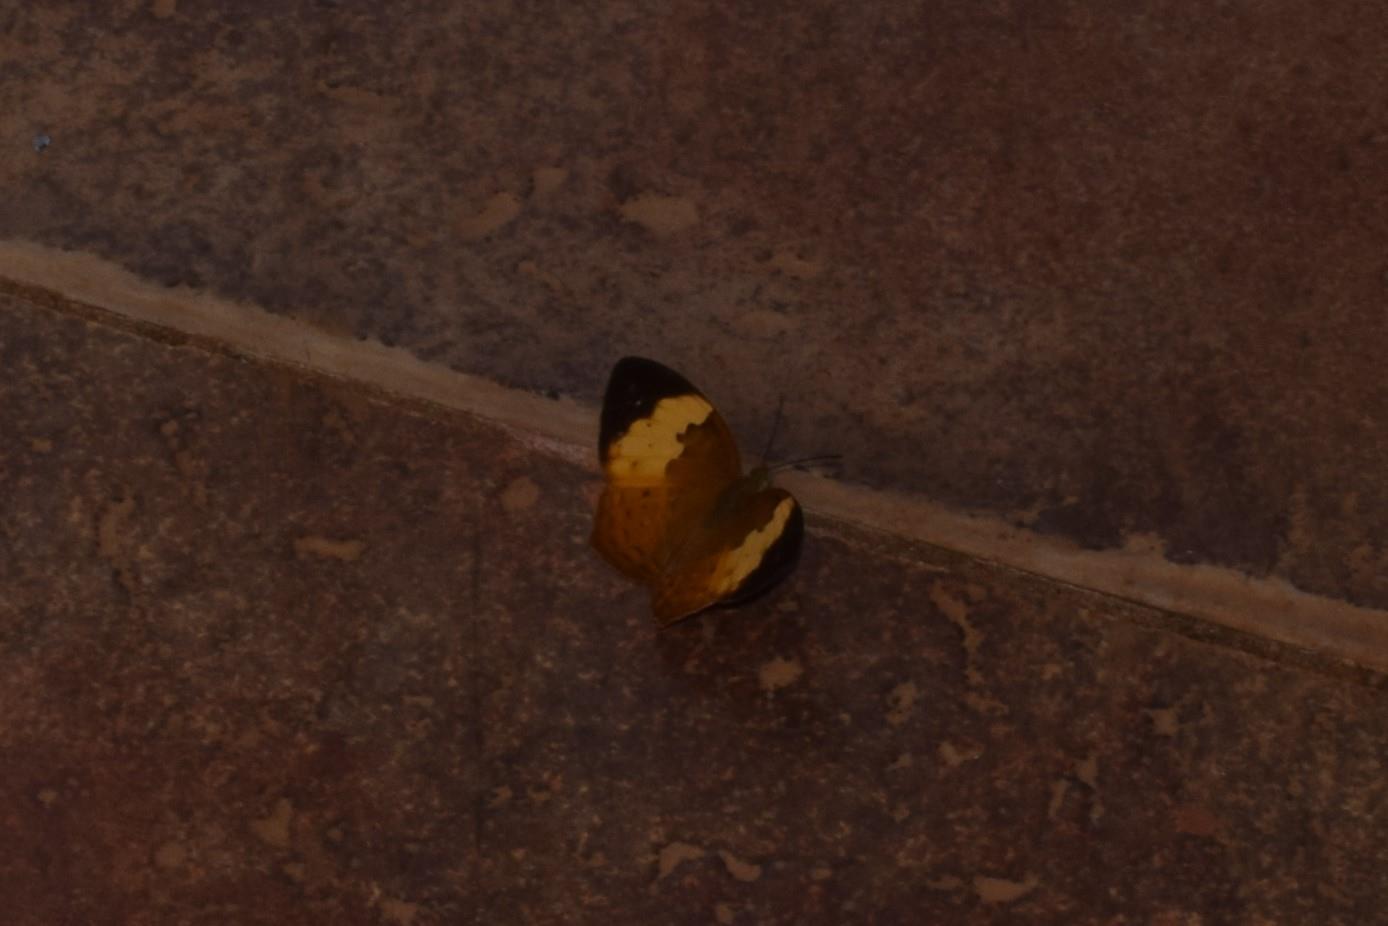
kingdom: Animalia
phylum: Arthropoda
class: Insecta
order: Lepidoptera
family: Nymphalidae
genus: Cupha
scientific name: Cupha erymanthis
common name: Rustic
